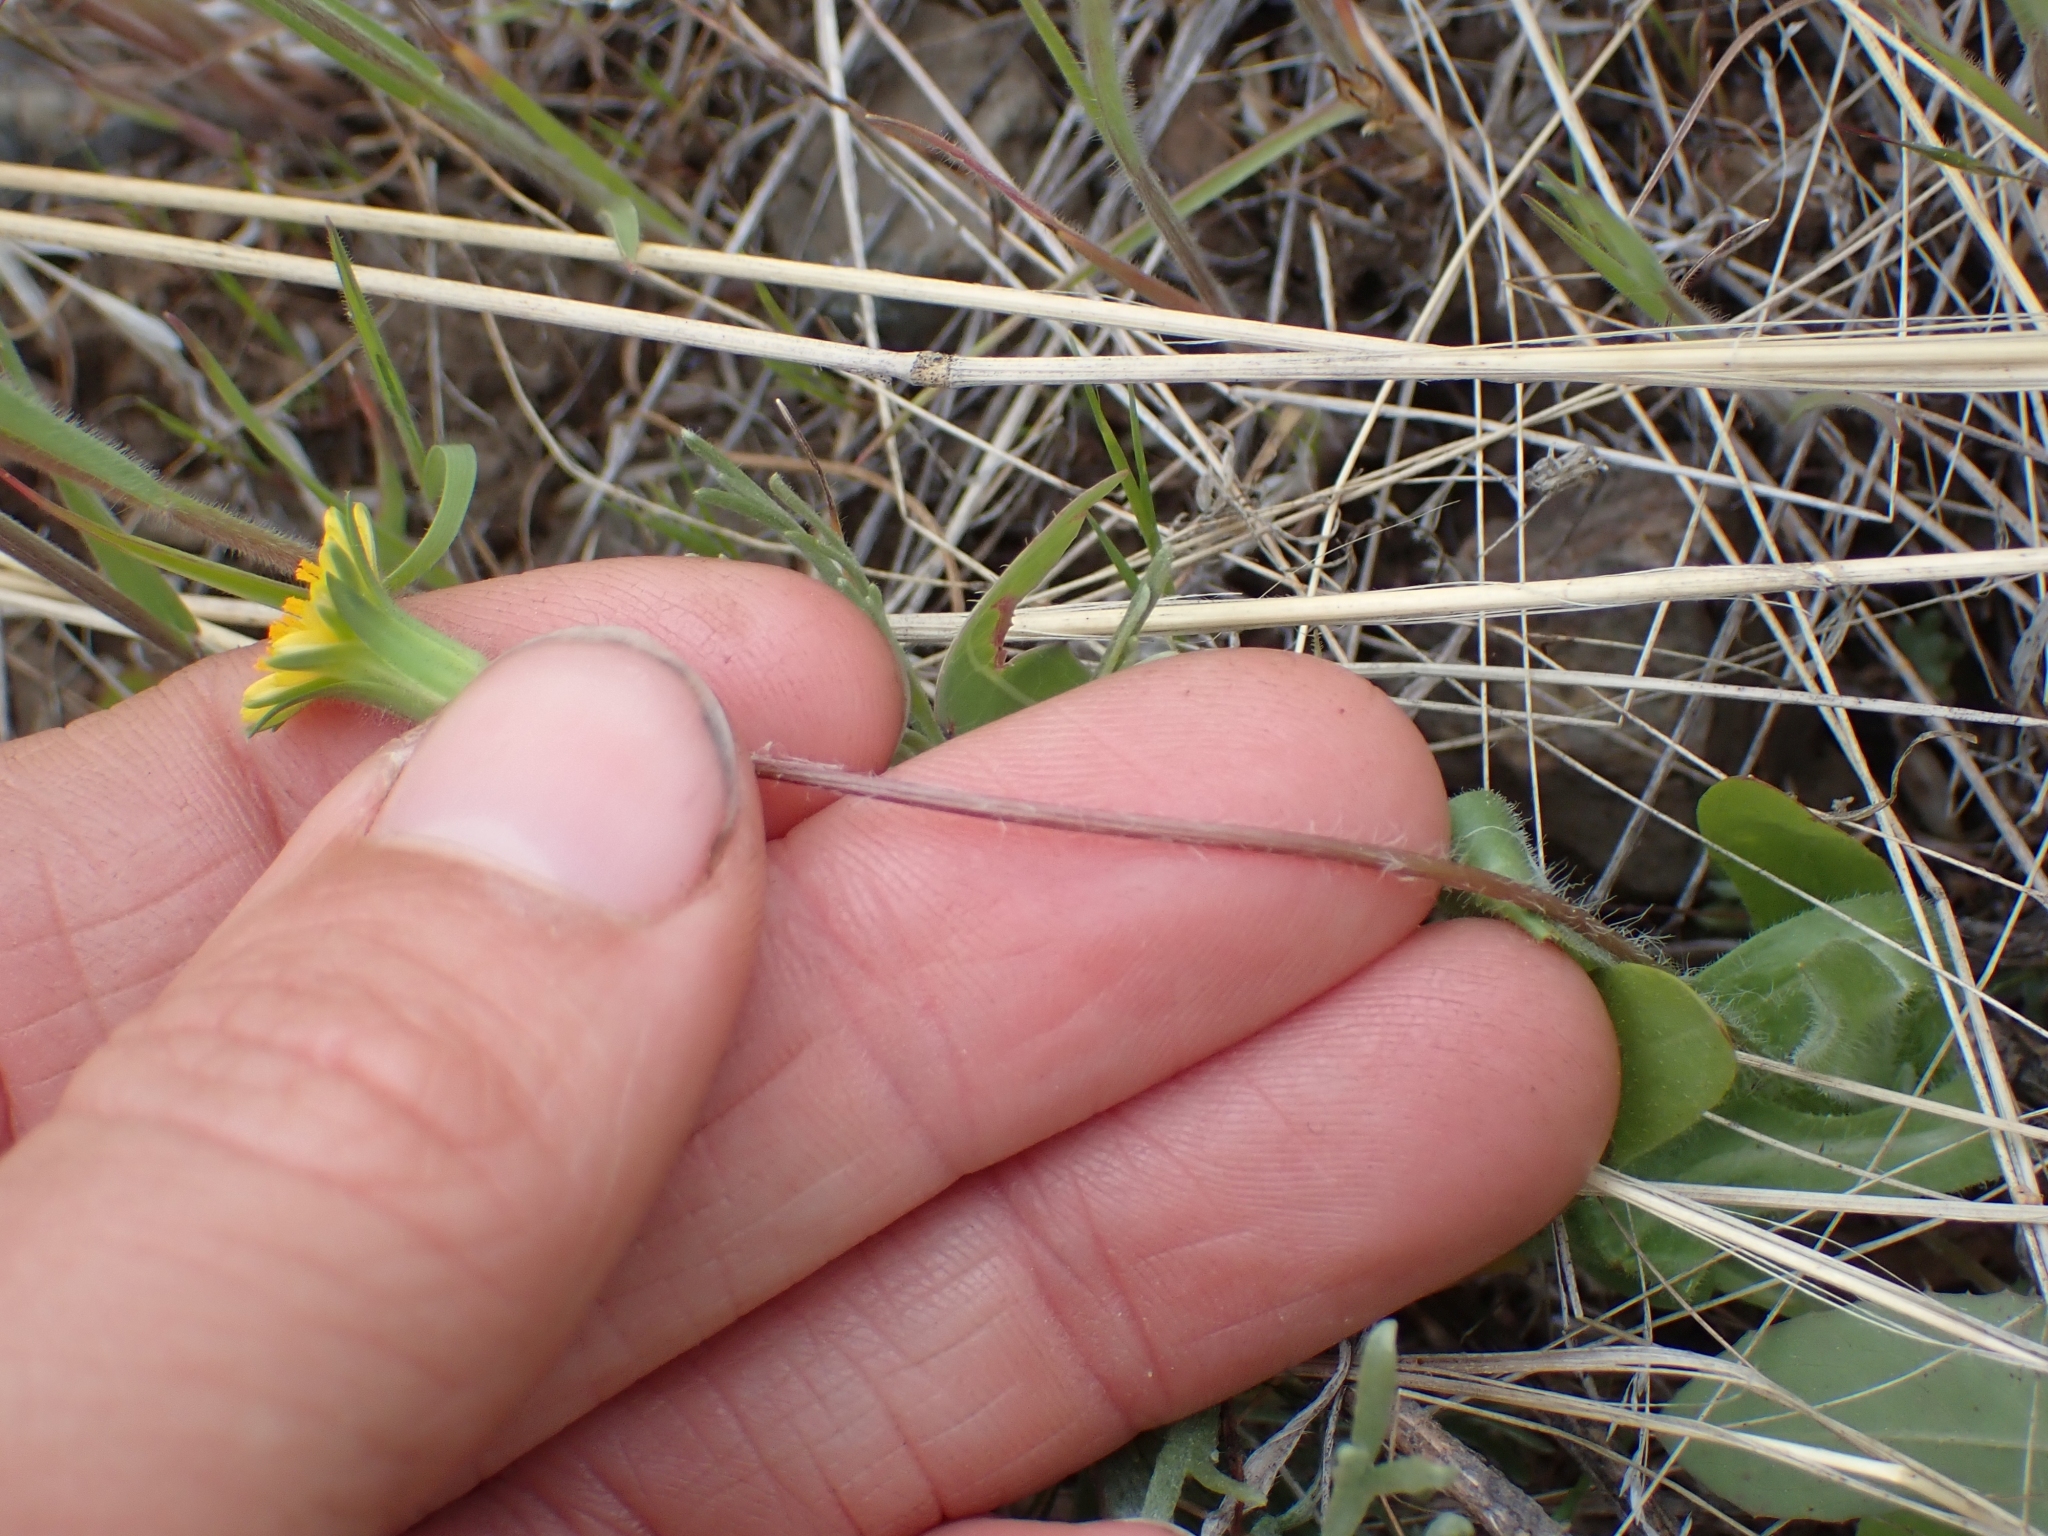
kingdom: Plantae
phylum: Tracheophyta
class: Magnoliopsida
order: Asterales
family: Asteraceae
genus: Agoseris
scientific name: Agoseris heterophylla
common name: Annual agoseris
